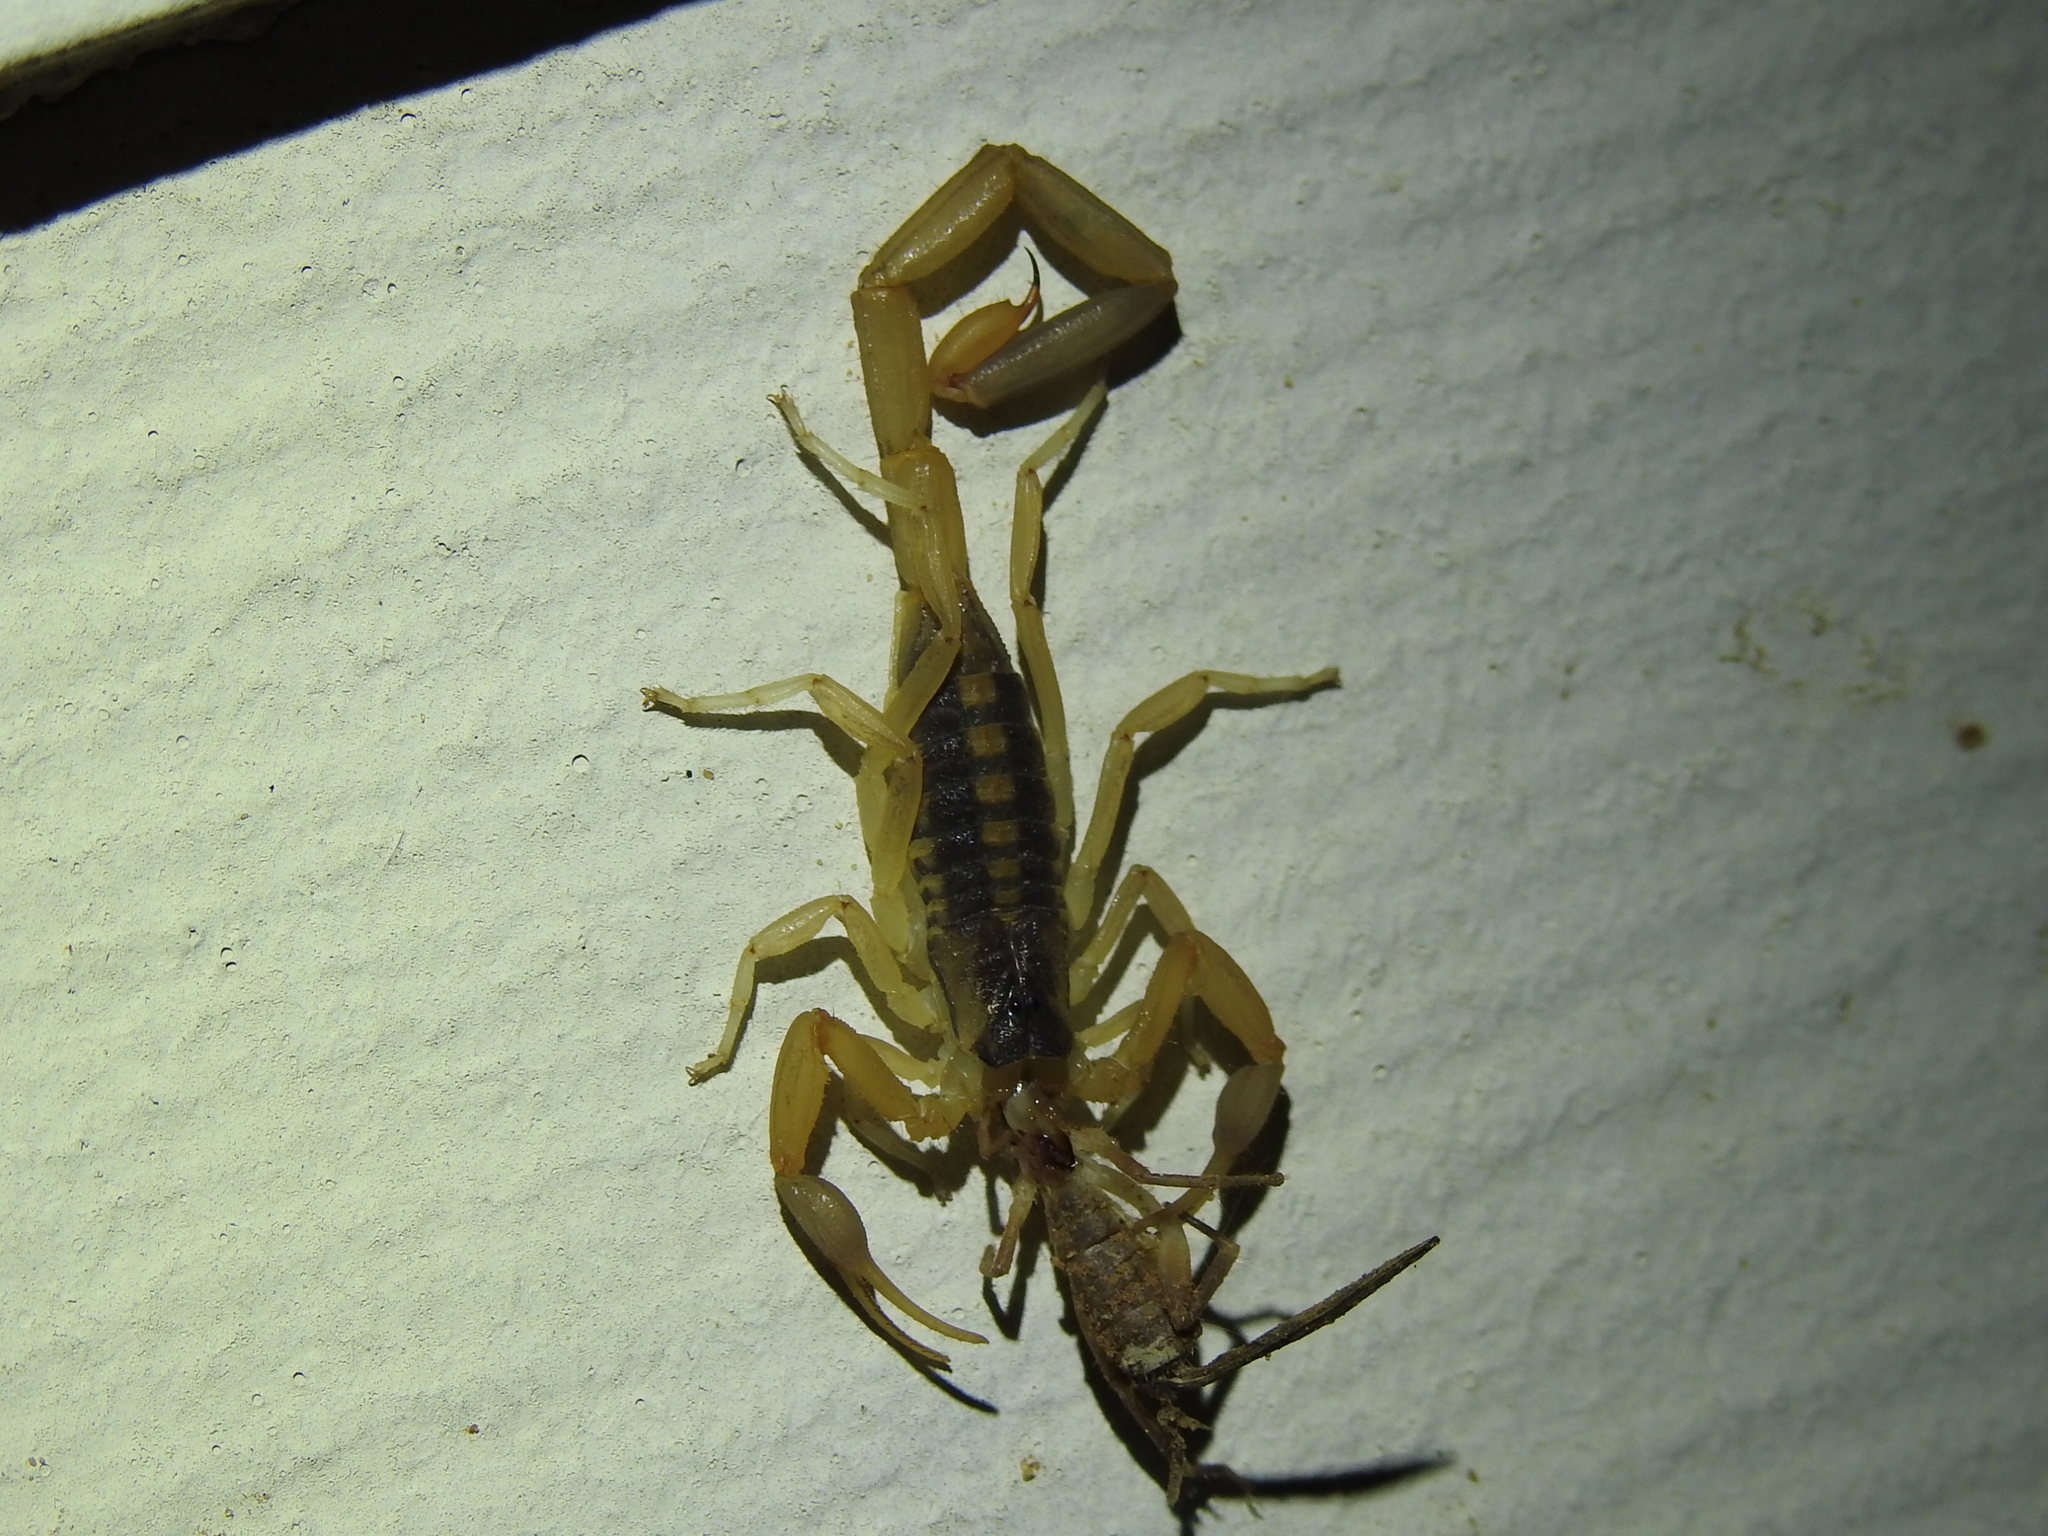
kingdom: Animalia
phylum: Arthropoda
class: Arachnida
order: Scorpiones
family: Buthidae
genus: Centruroides
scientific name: Centruroides vittatus
